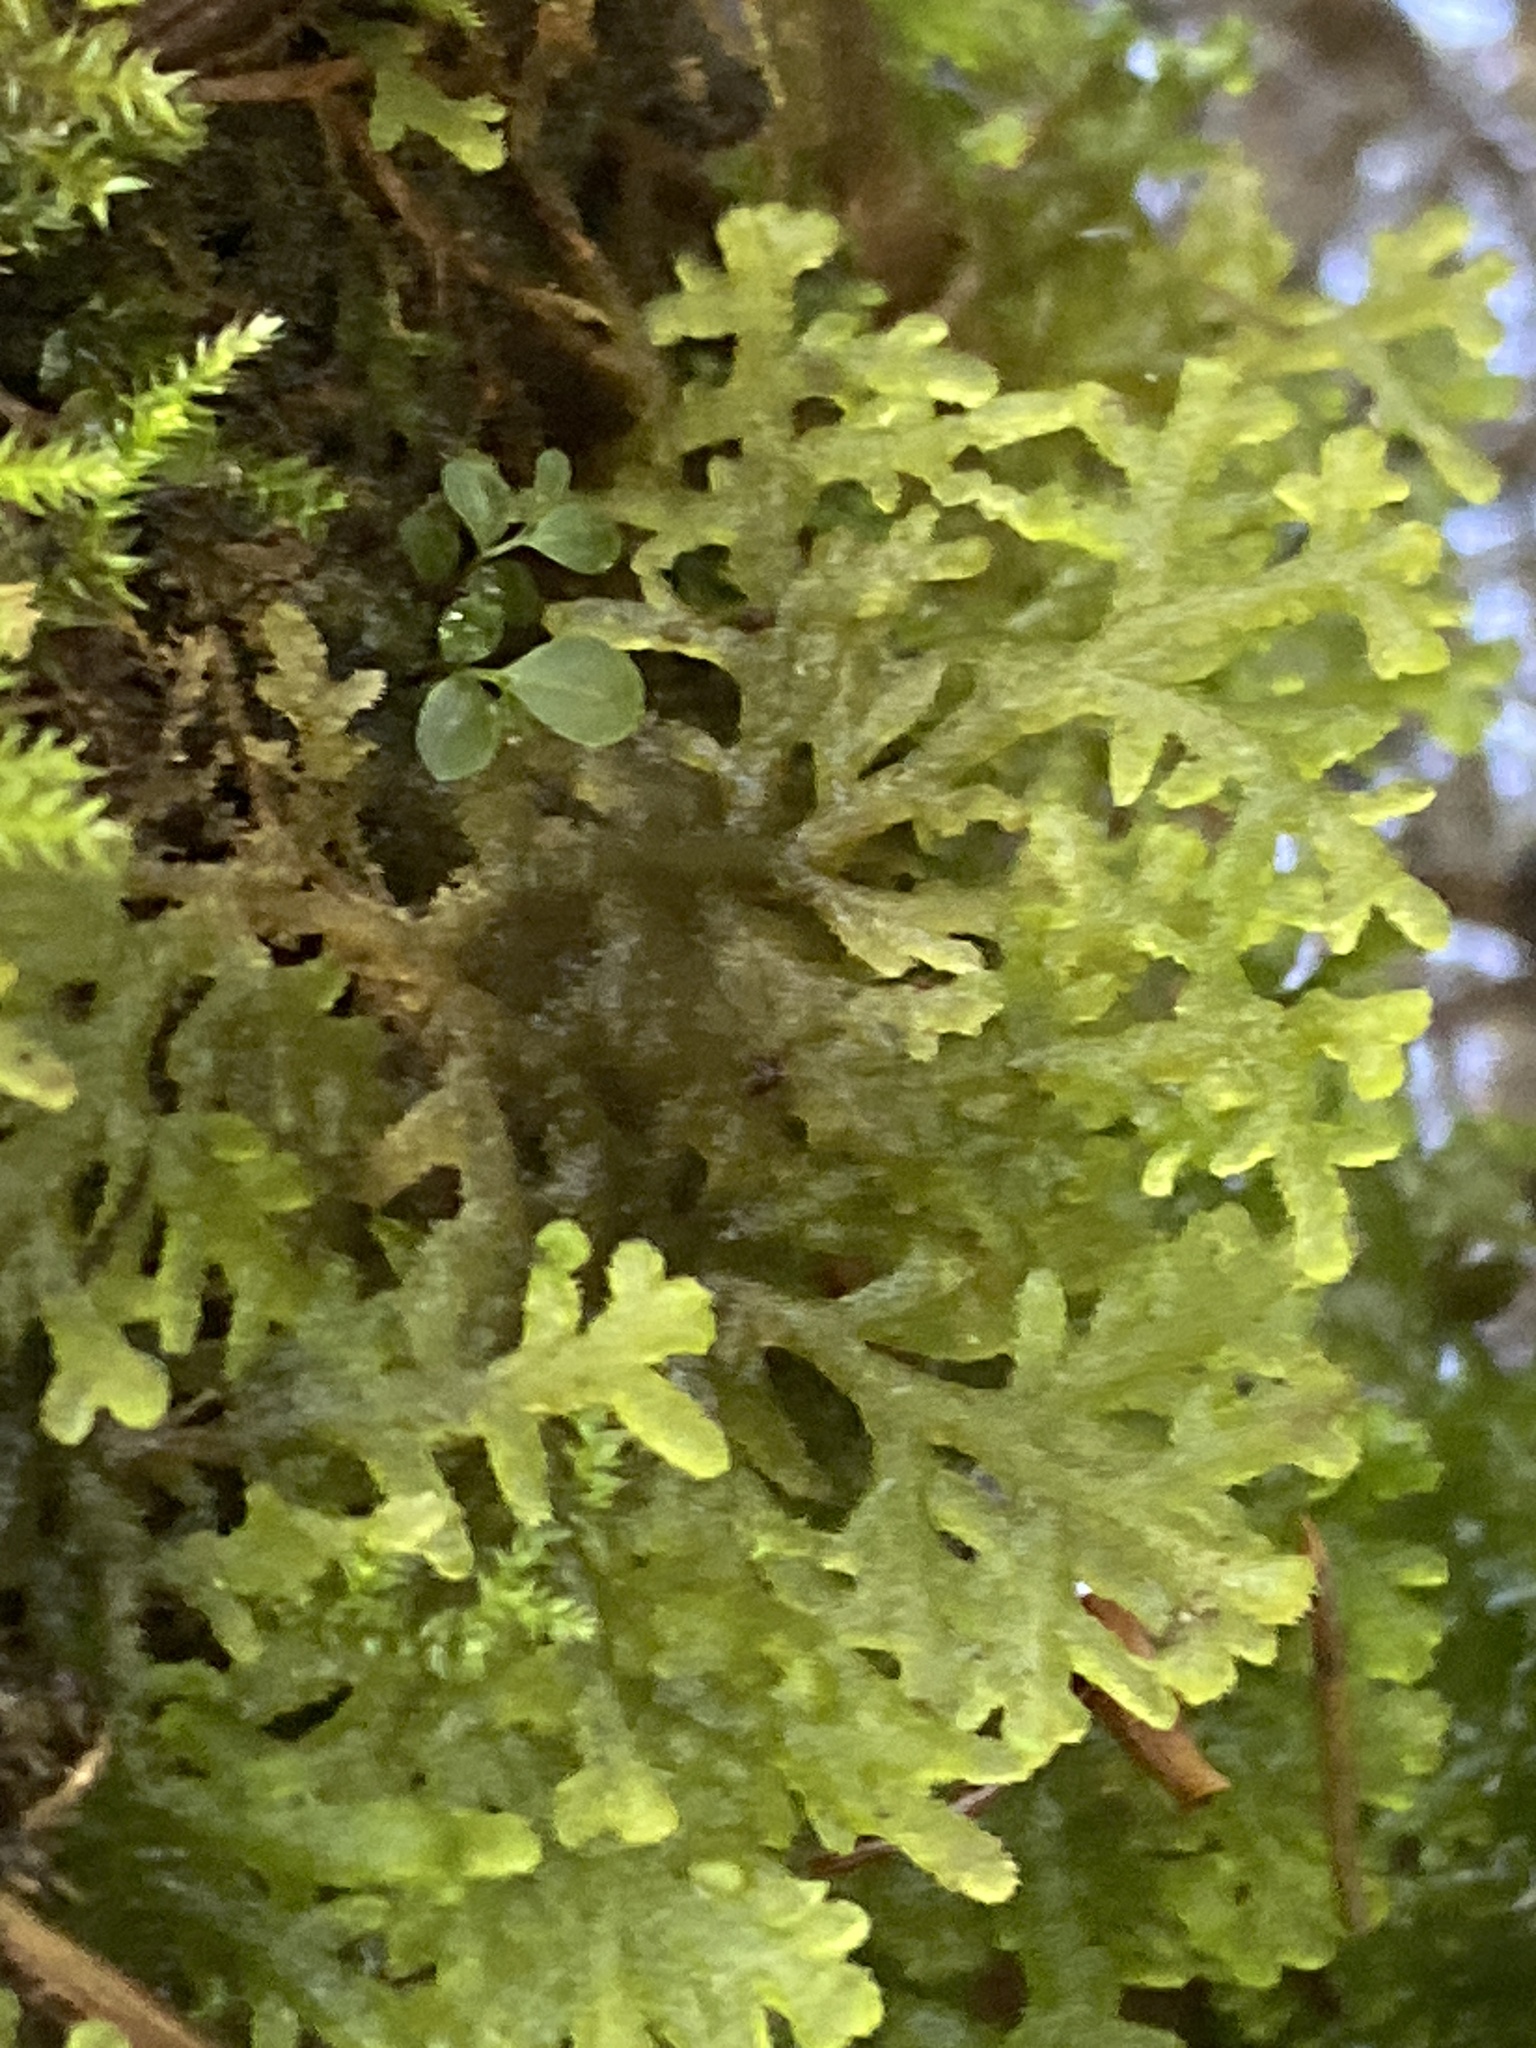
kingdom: Plantae
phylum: Marchantiophyta
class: Jungermanniopsida
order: Jungermanniales
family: Trichocoleaceae
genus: Trichocolea
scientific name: Trichocolea tomentella
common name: Woolly liverwort
